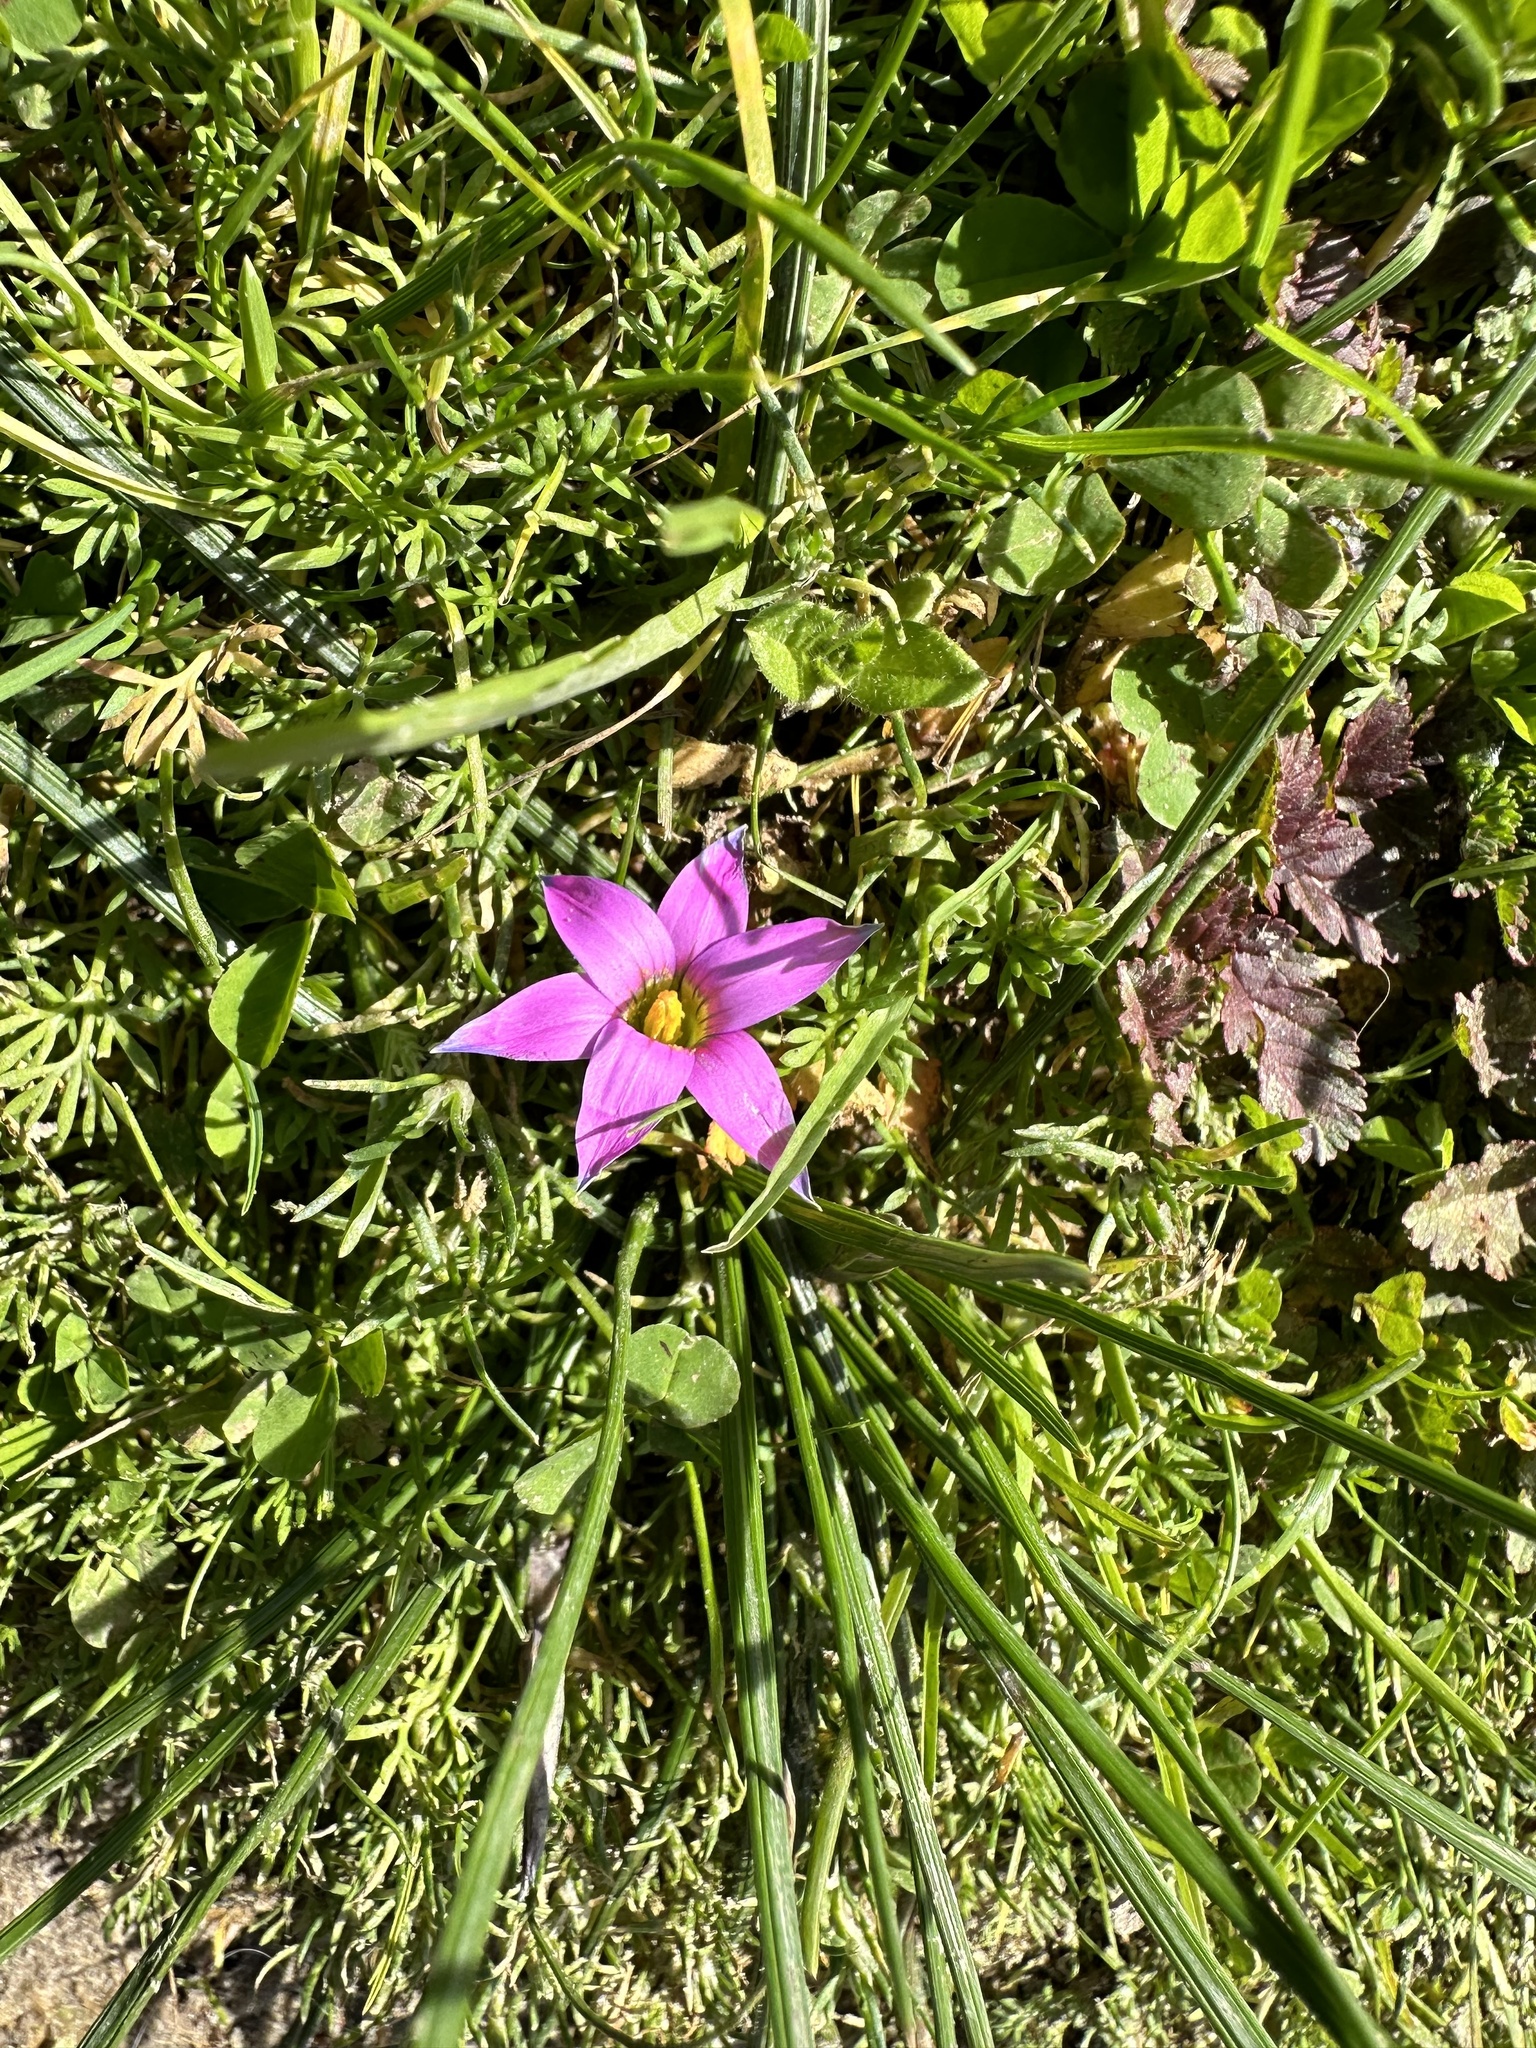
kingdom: Plantae
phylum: Tracheophyta
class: Liliopsida
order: Asparagales
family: Iridaceae
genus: Romulea
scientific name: Romulea rosea
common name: Oniongrass
